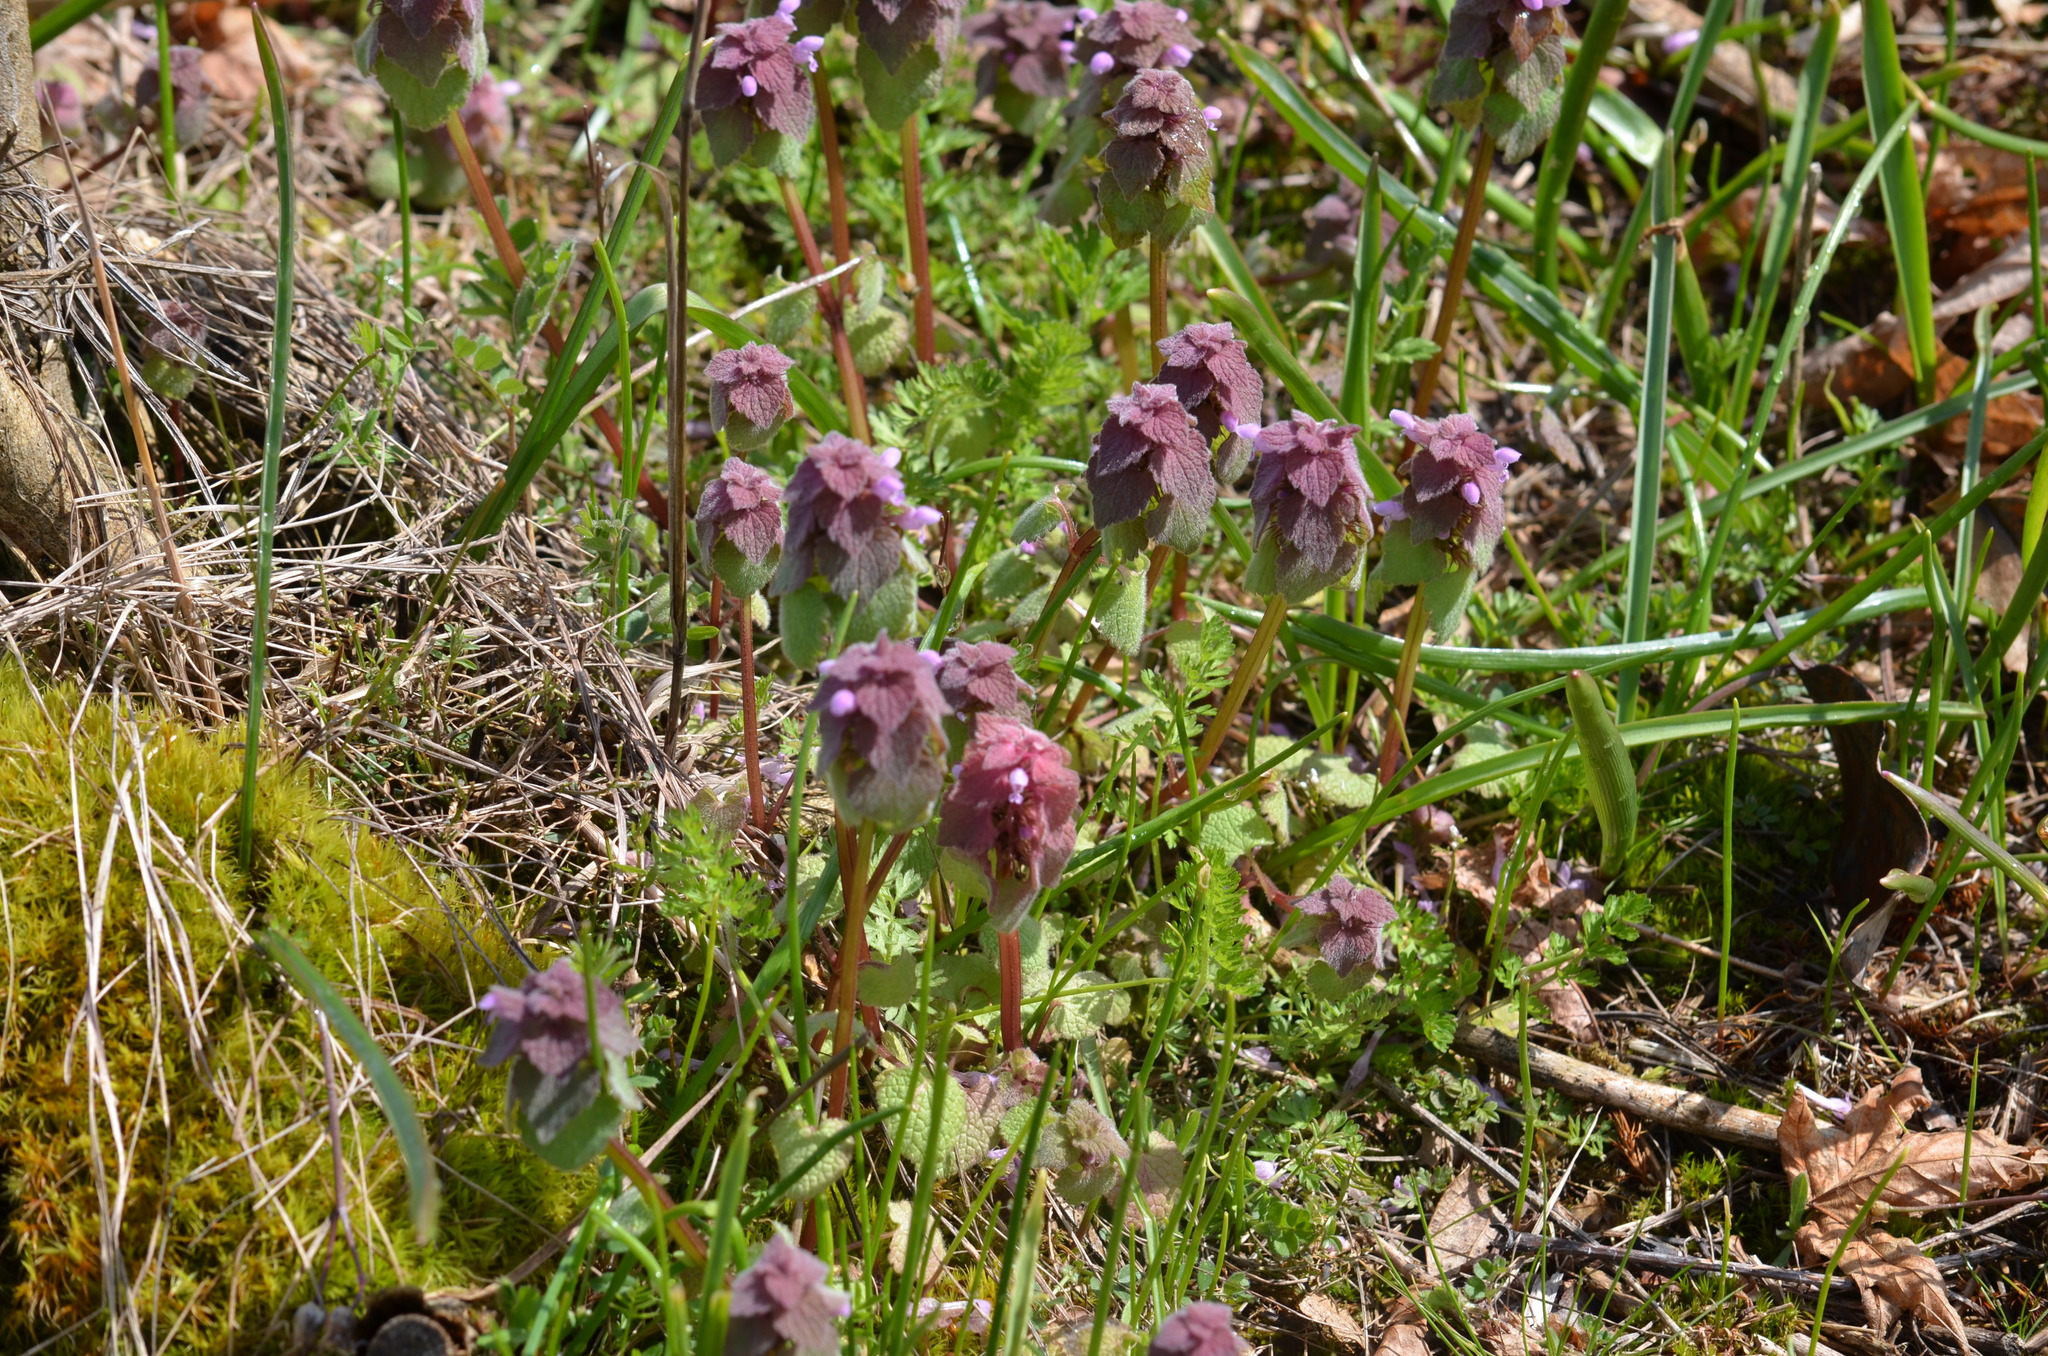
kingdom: Plantae
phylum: Tracheophyta
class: Magnoliopsida
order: Lamiales
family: Lamiaceae
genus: Lamium
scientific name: Lamium purpureum
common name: Red dead-nettle
